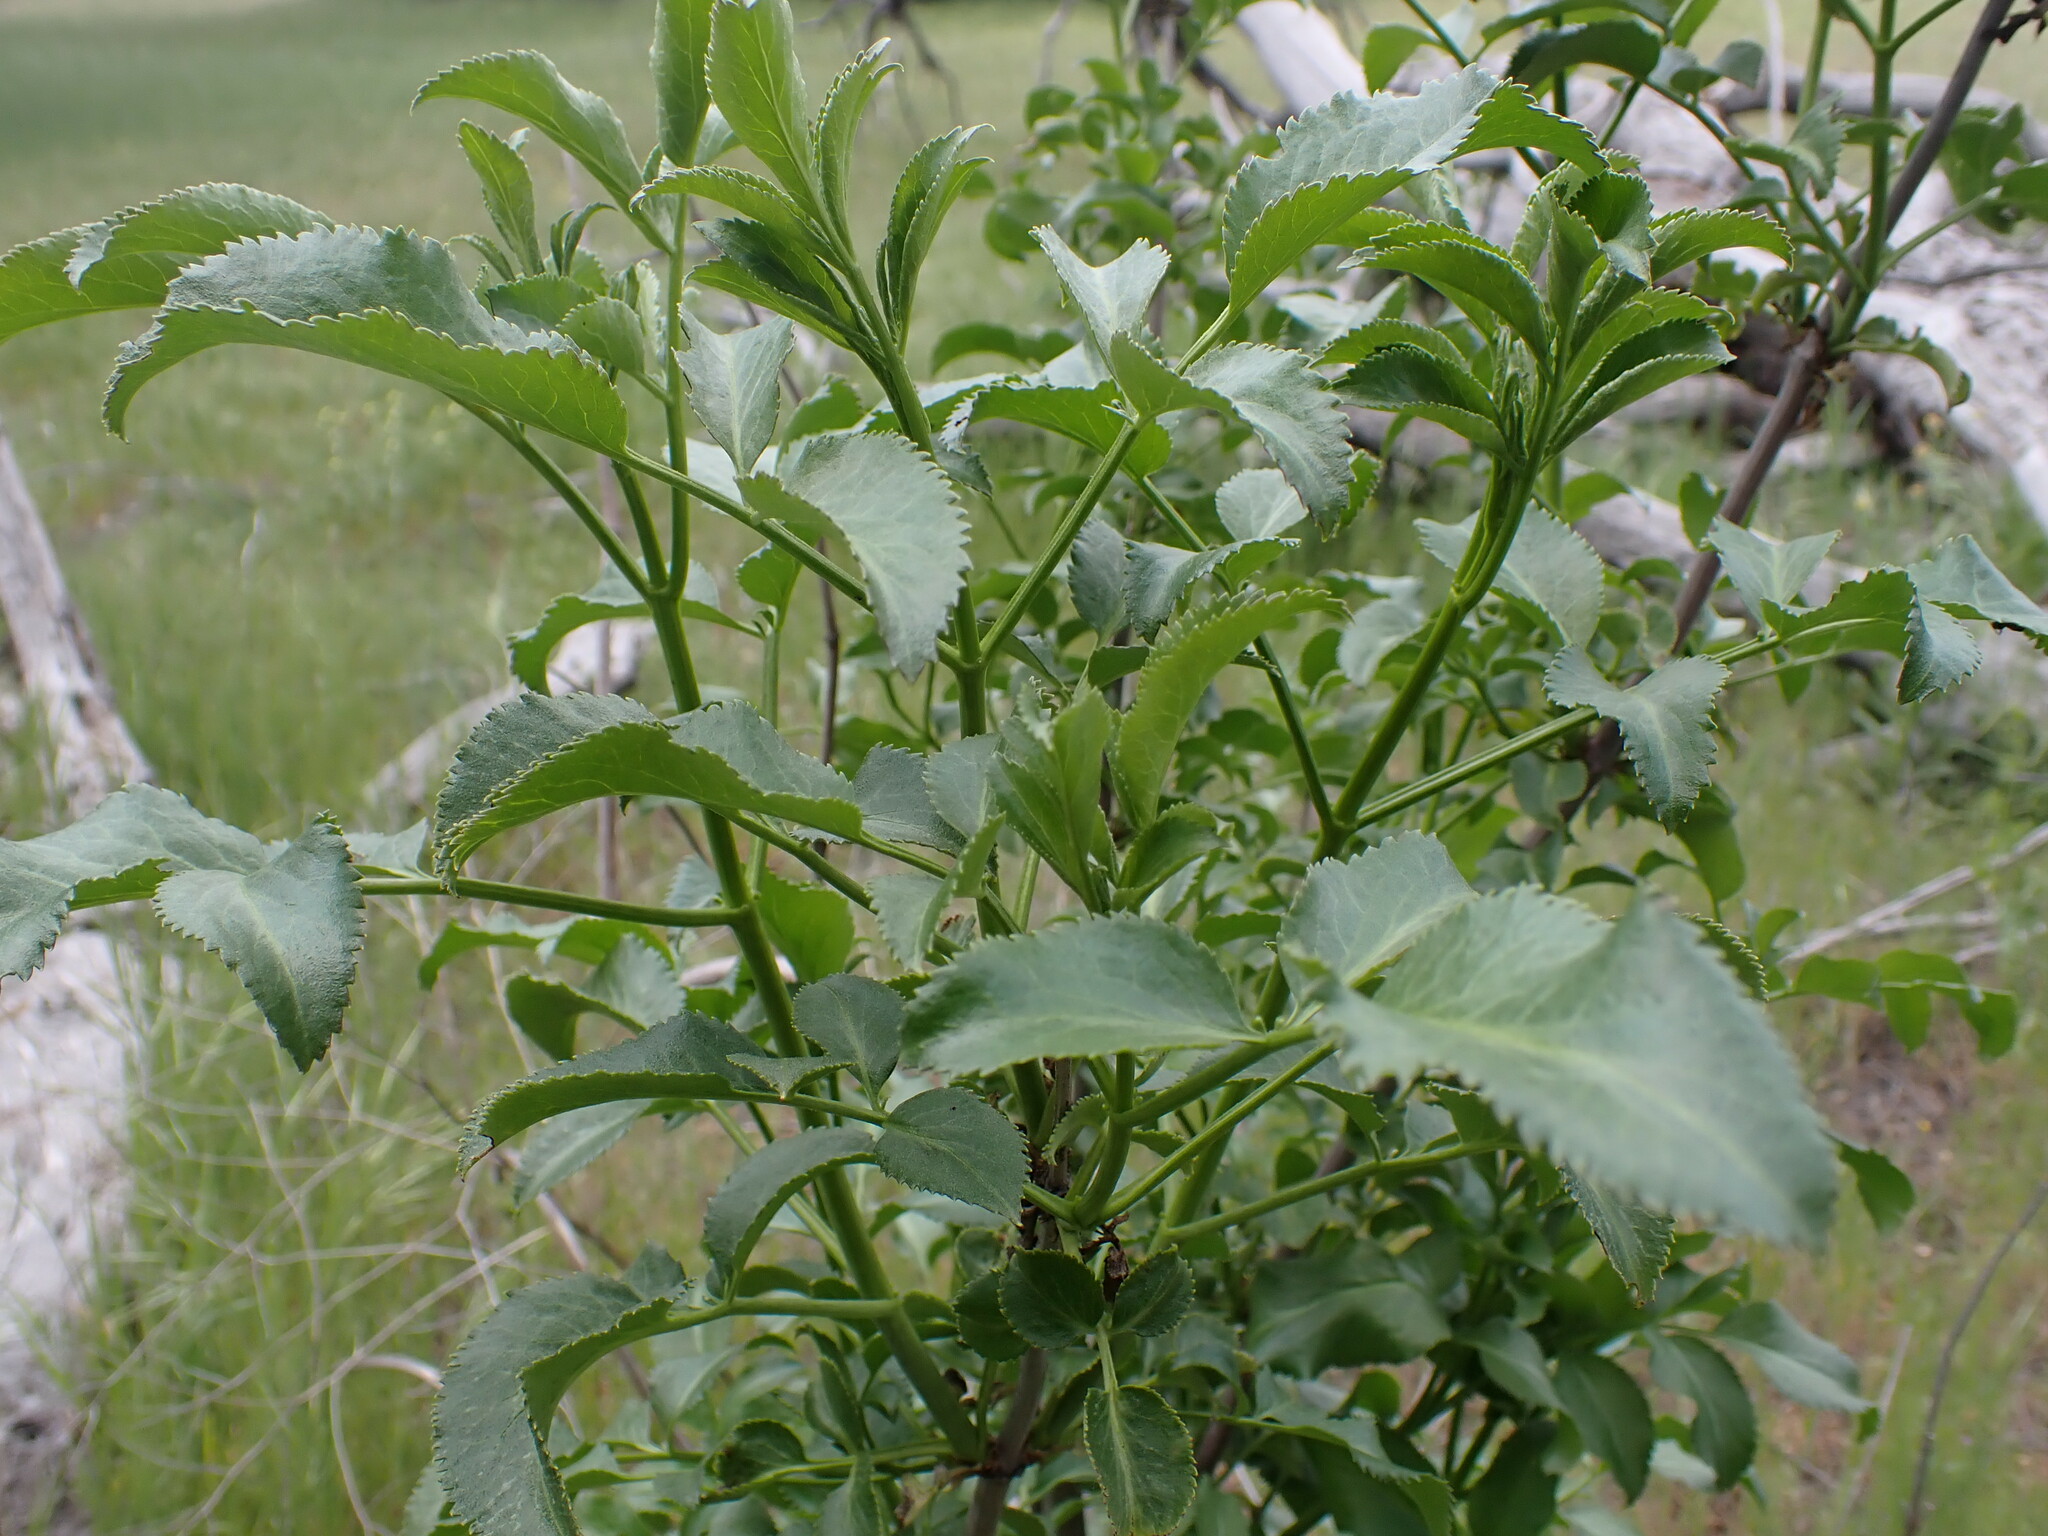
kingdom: Plantae
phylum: Tracheophyta
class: Magnoliopsida
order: Dipsacales
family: Viburnaceae
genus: Sambucus
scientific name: Sambucus cerulea
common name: Blue elder
